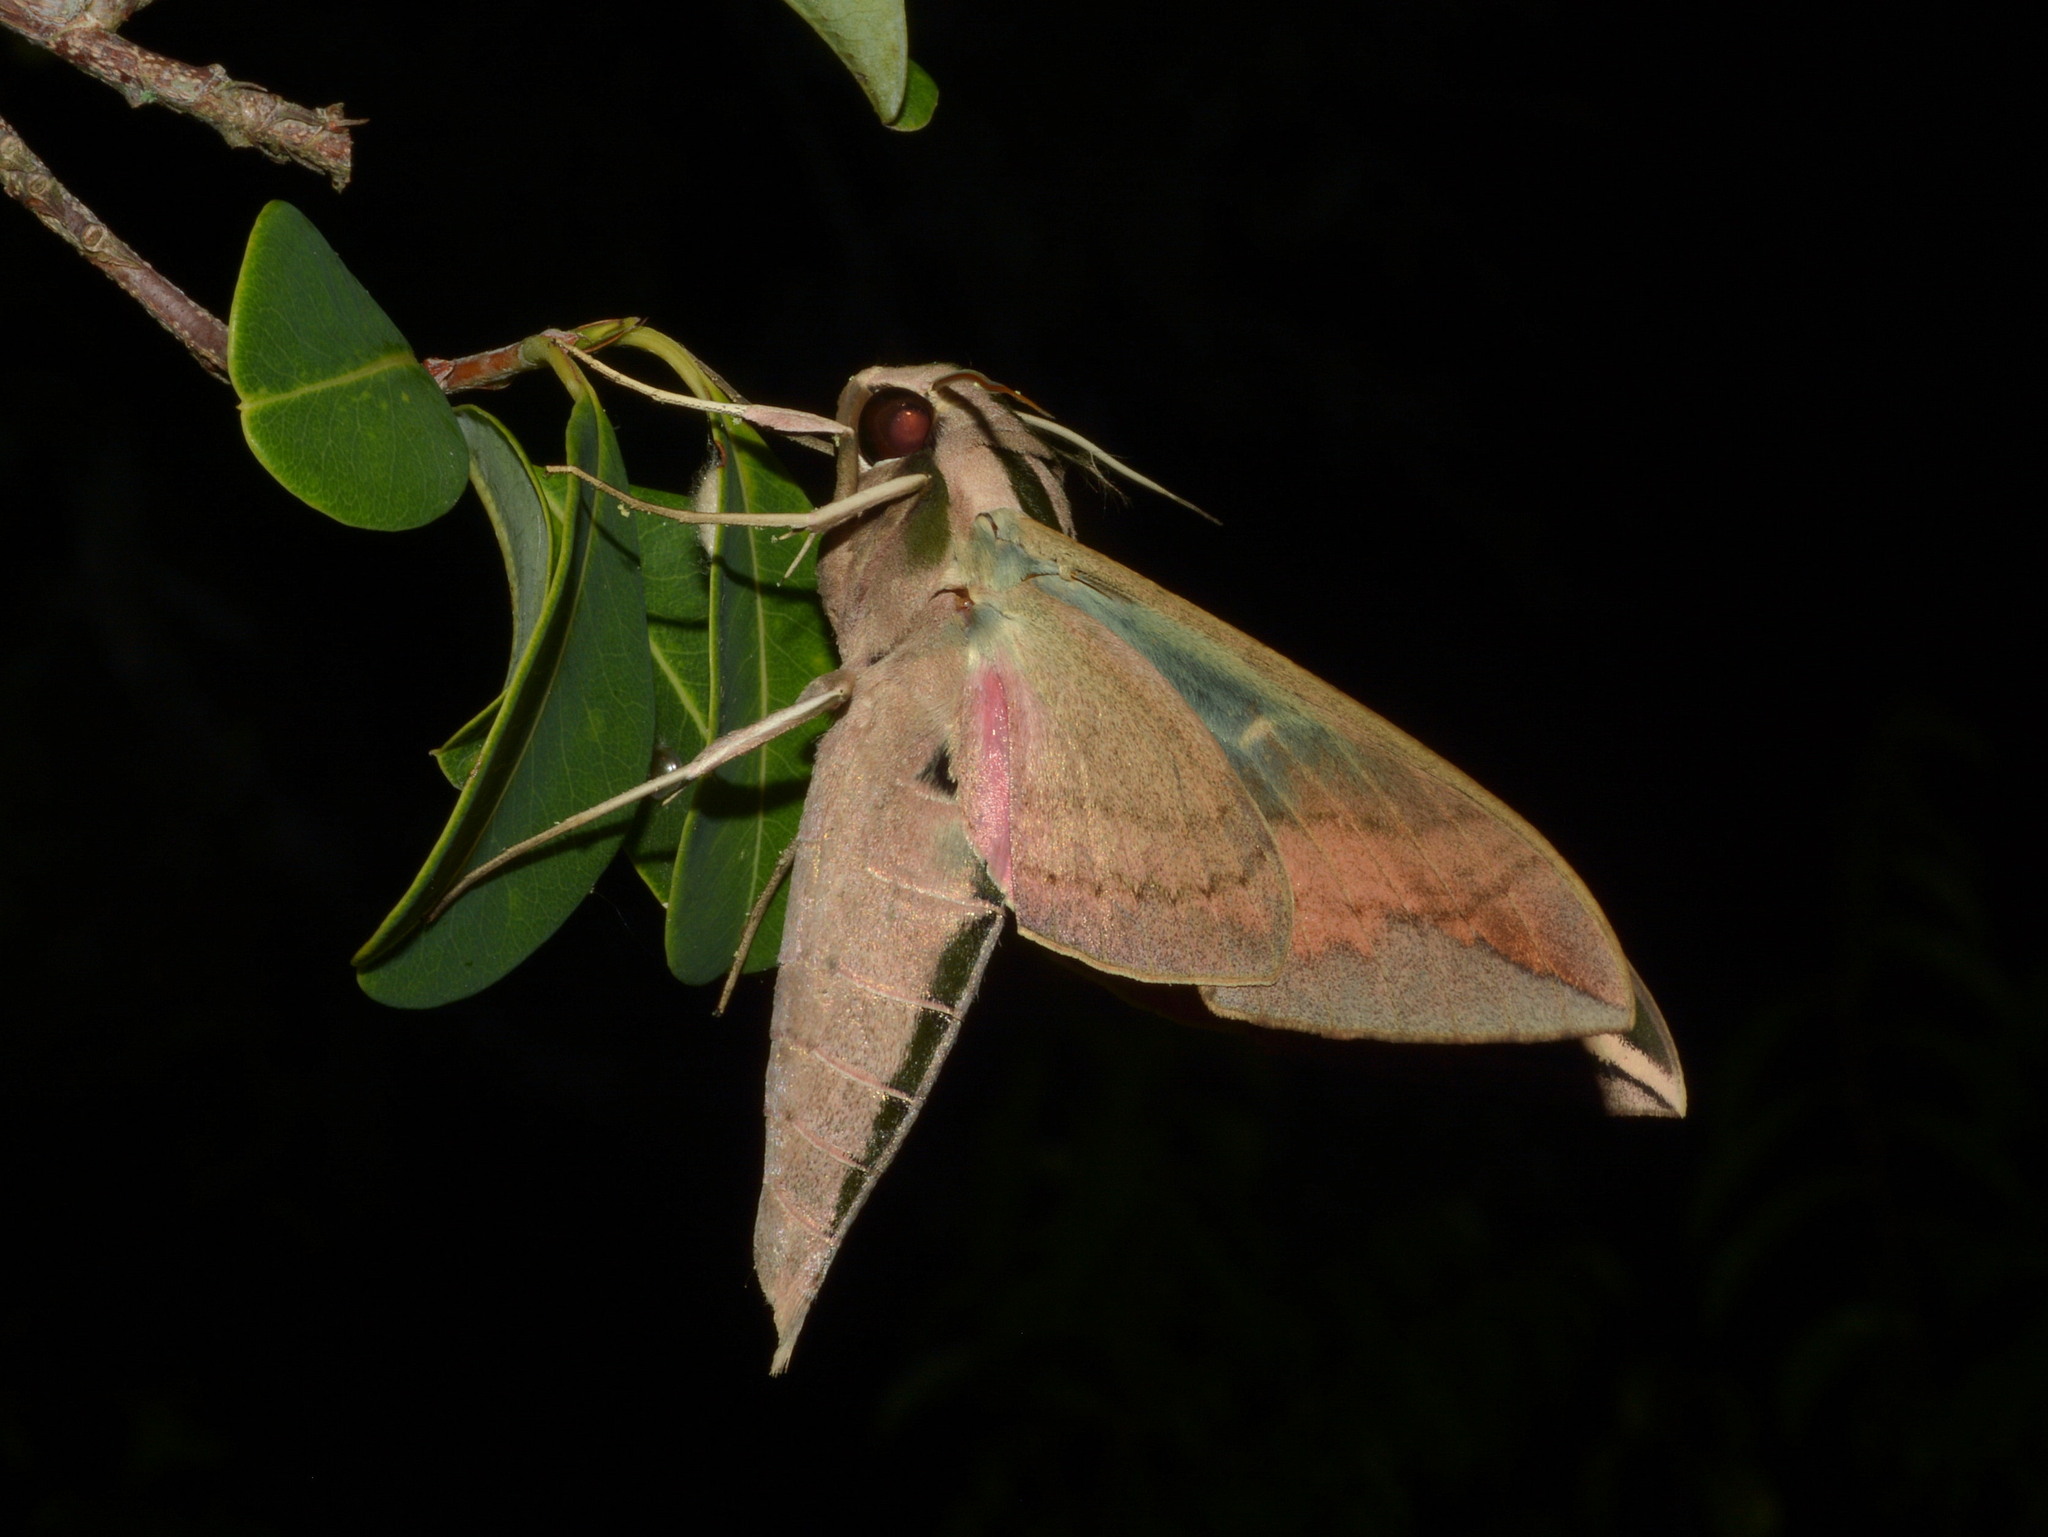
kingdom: Animalia
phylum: Arthropoda
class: Insecta
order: Lepidoptera
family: Sphingidae
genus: Eumorpha
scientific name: Eumorpha fasciatus
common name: Banded sphinx
